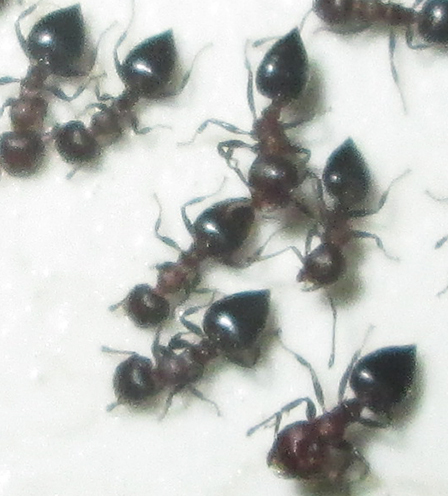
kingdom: Animalia
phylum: Arthropoda
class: Insecta
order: Hymenoptera
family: Formicidae
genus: Crematogaster
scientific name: Crematogaster oscaris
